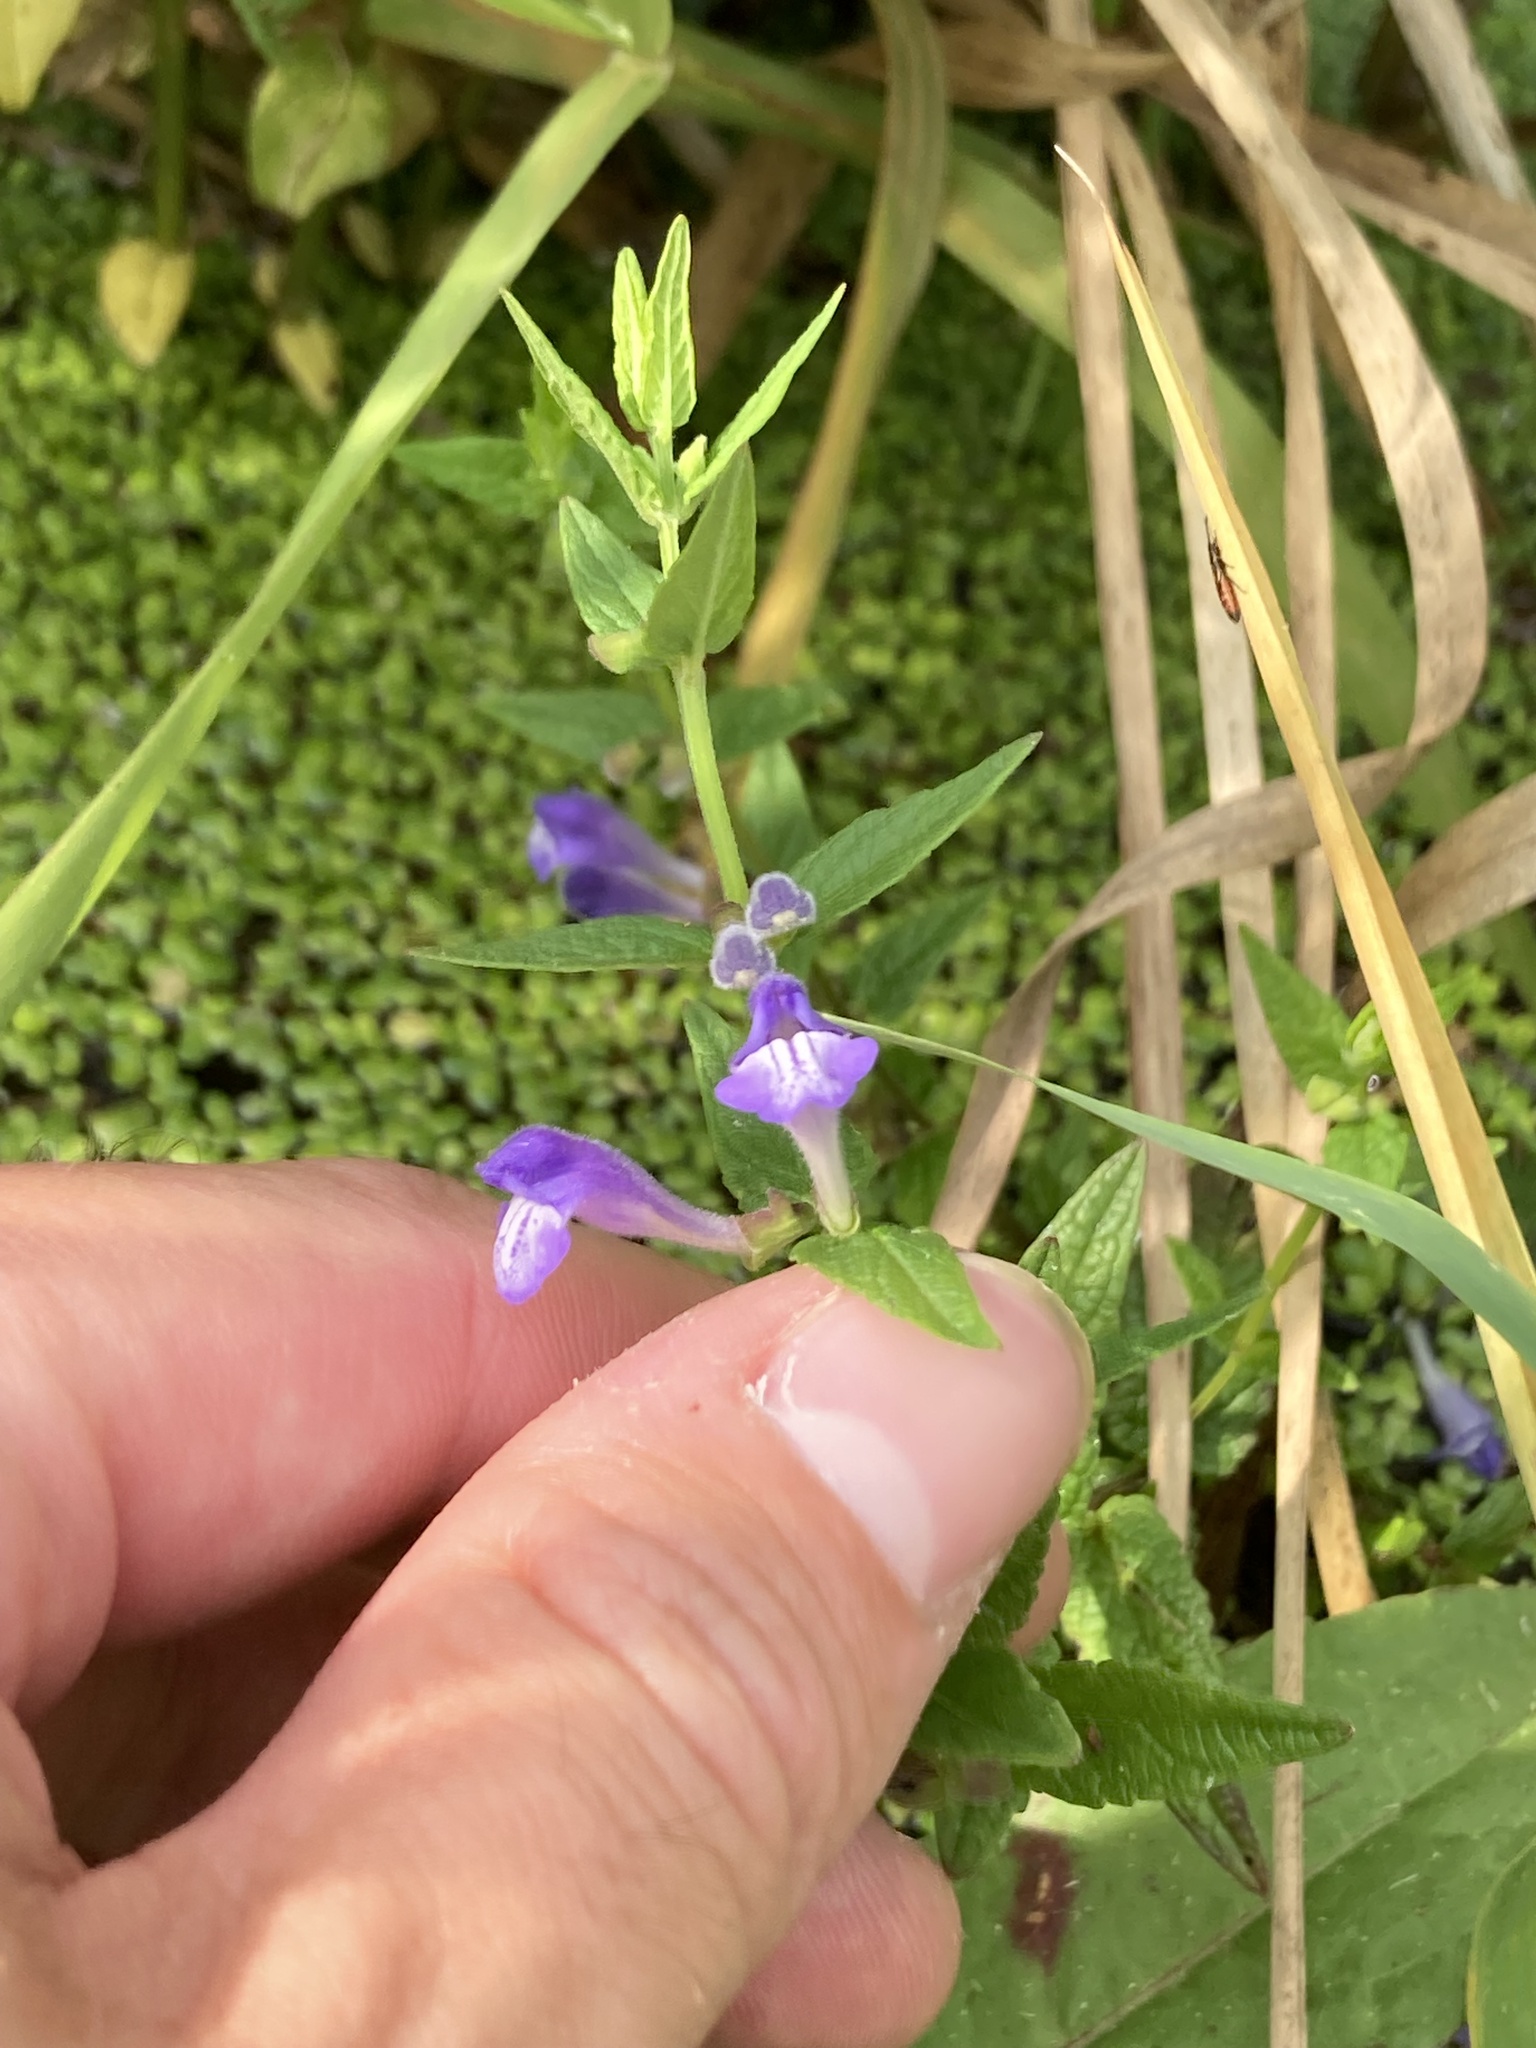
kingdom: Plantae
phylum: Tracheophyta
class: Magnoliopsida
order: Lamiales
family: Lamiaceae
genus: Scutellaria
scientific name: Scutellaria galericulata
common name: Skullcap
